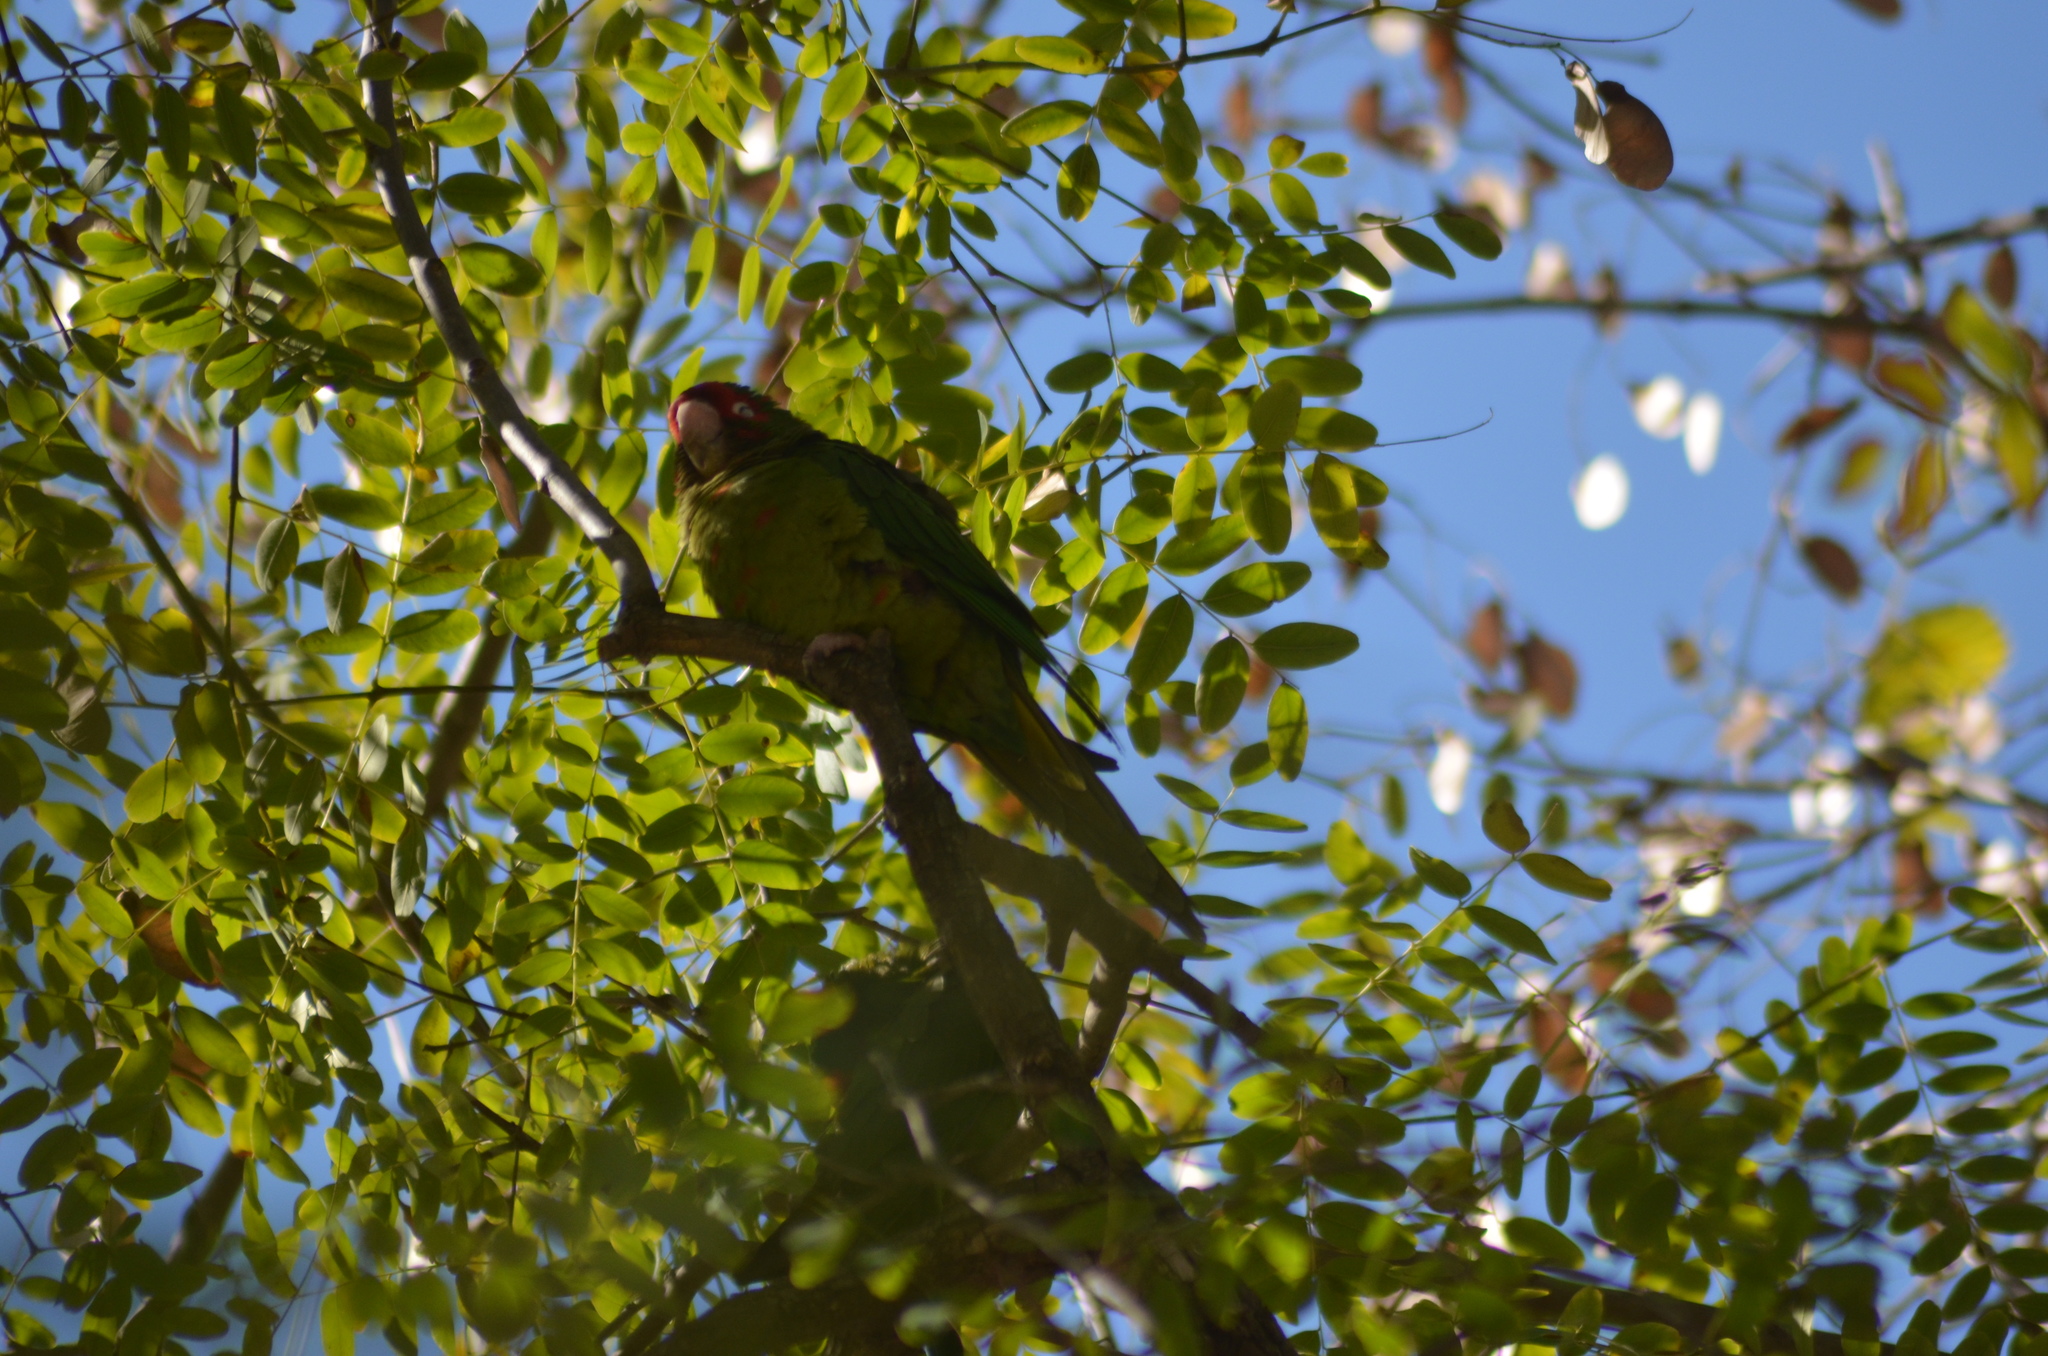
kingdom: Animalia
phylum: Chordata
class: Aves
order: Psittaciformes
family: Psittacidae
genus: Aratinga
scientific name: Aratinga mitrata
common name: Mitred parakeet
